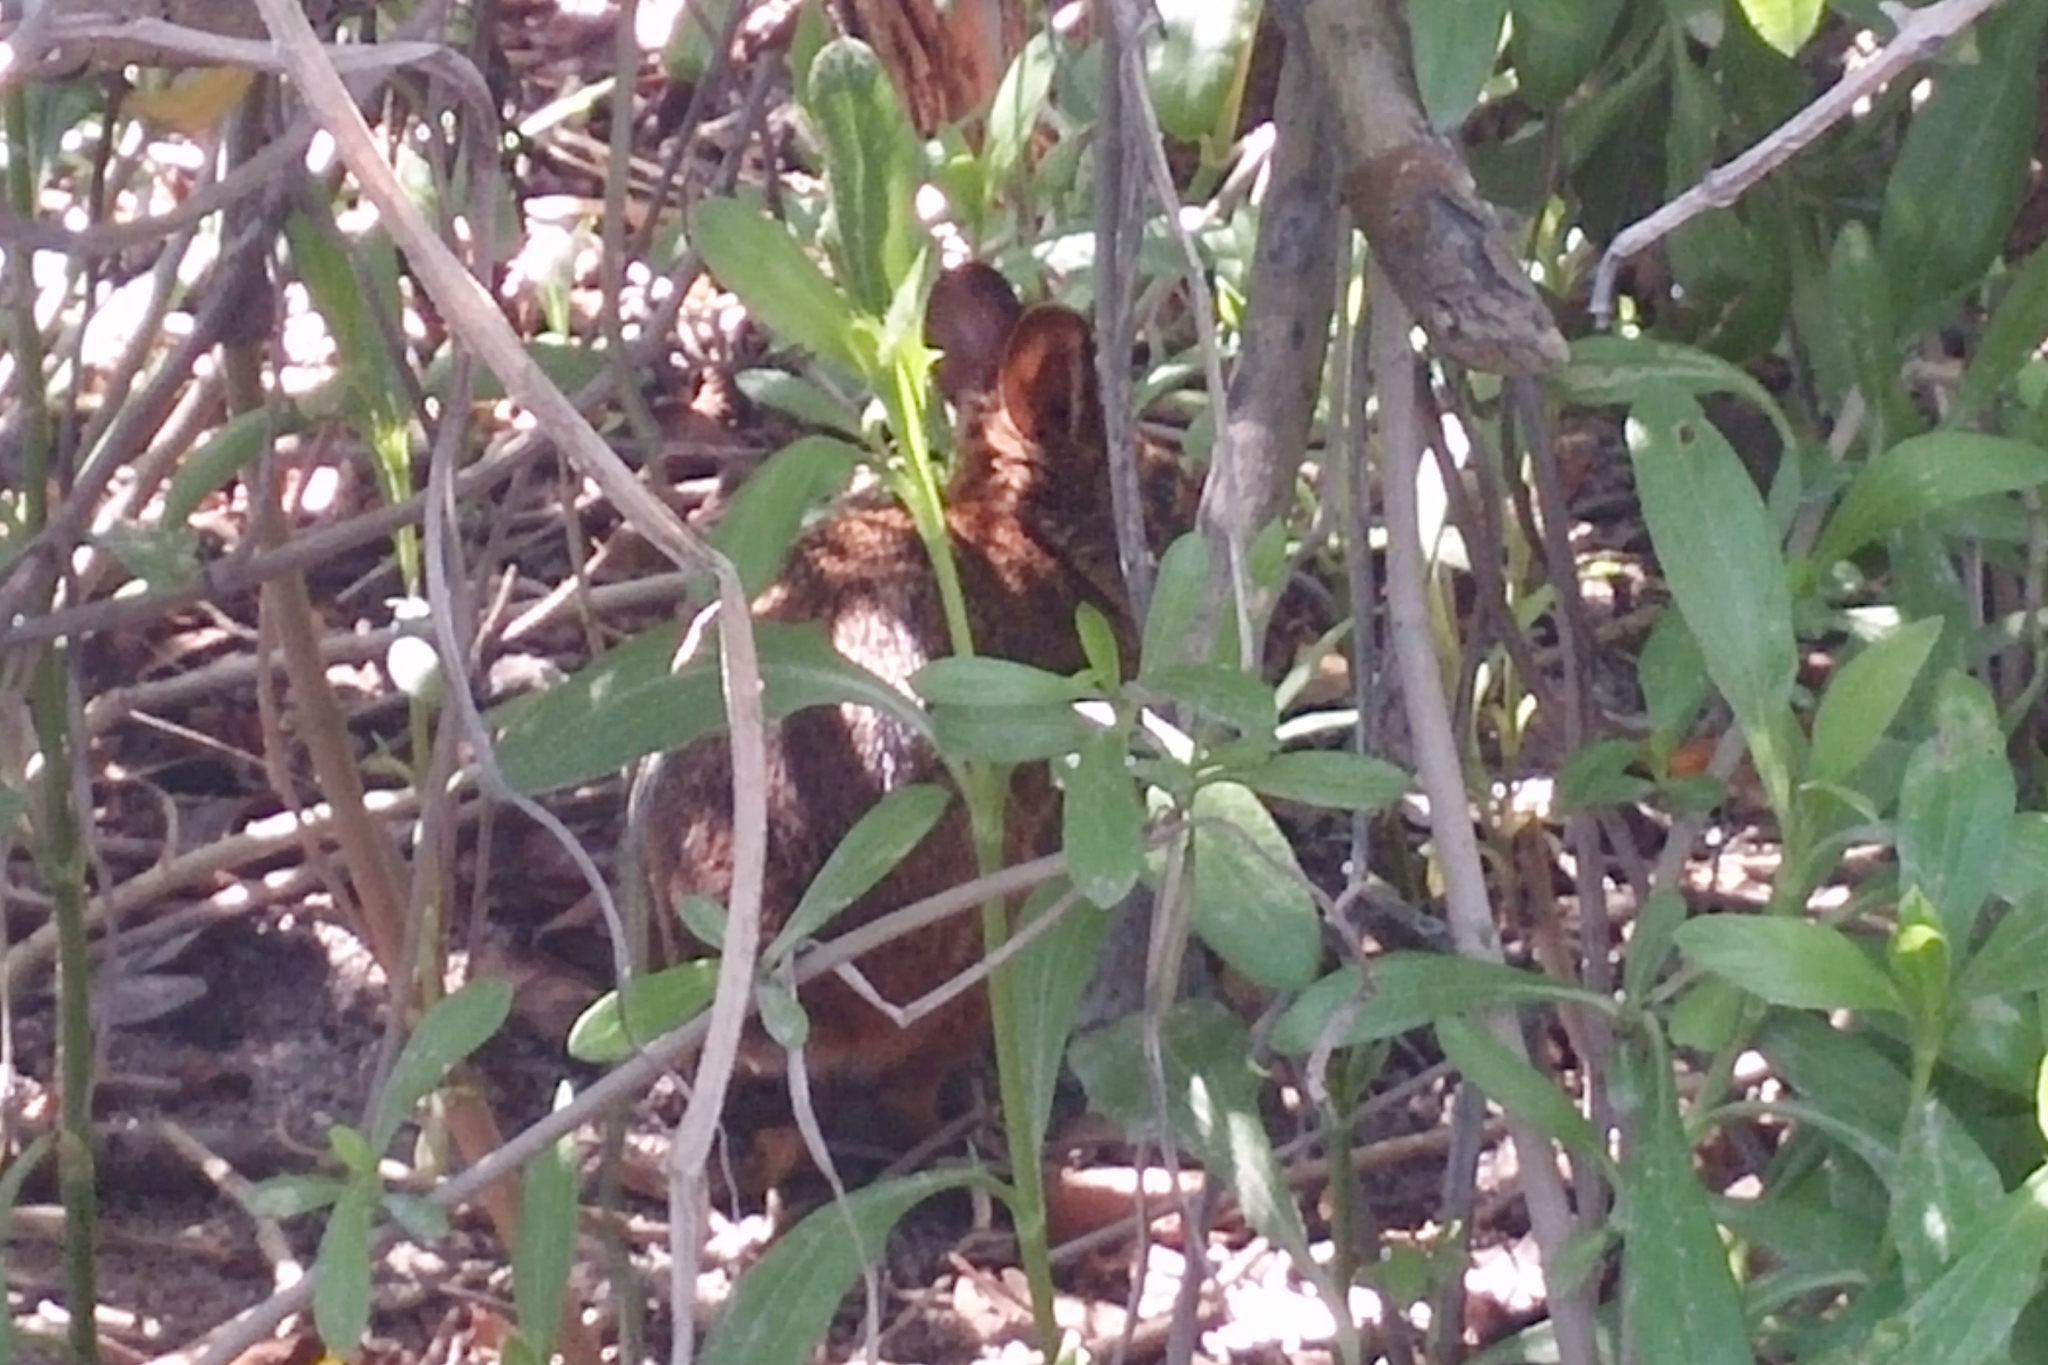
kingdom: Animalia
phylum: Chordata
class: Mammalia
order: Lagomorpha
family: Leporidae
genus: Sylvilagus
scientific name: Sylvilagus palustris
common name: Marsh rabbit
